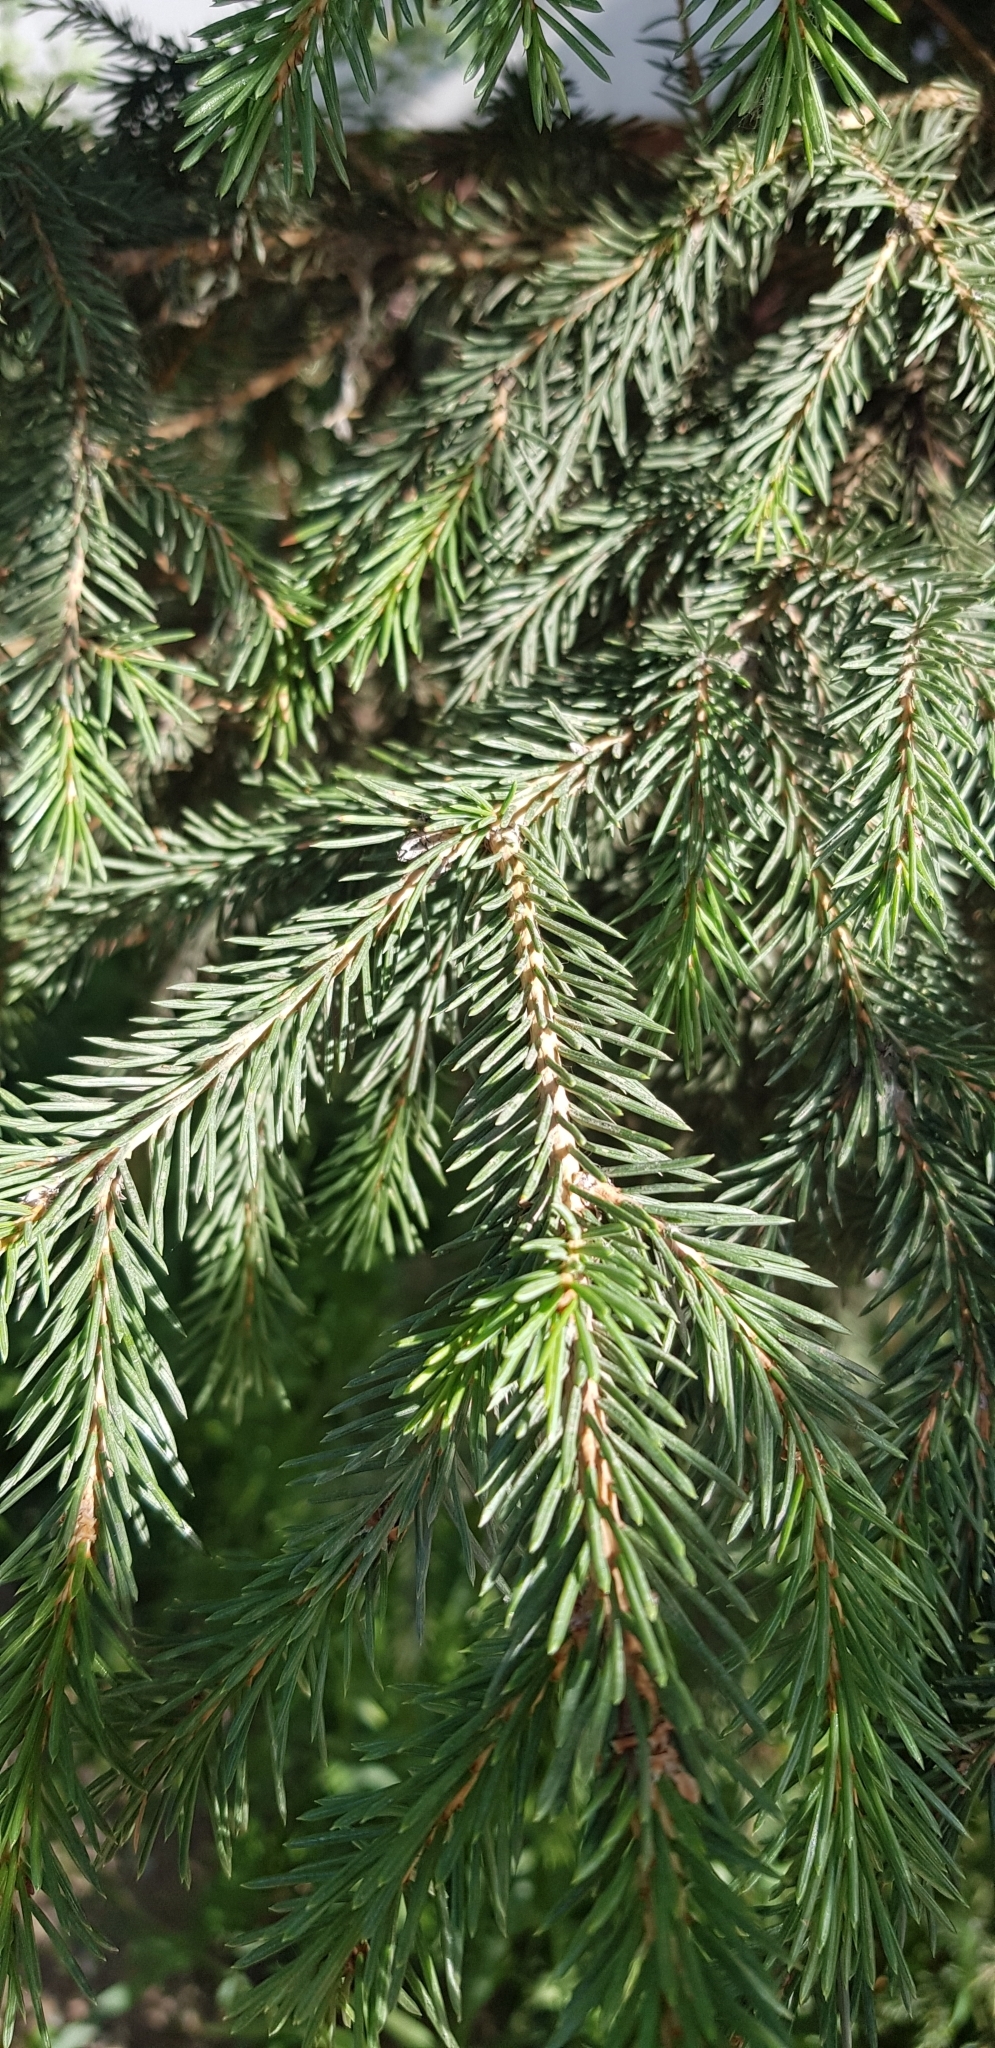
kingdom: Plantae
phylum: Tracheophyta
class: Pinopsida
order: Pinales
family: Pinaceae
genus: Picea
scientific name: Picea obovata
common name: Siberian spruce
